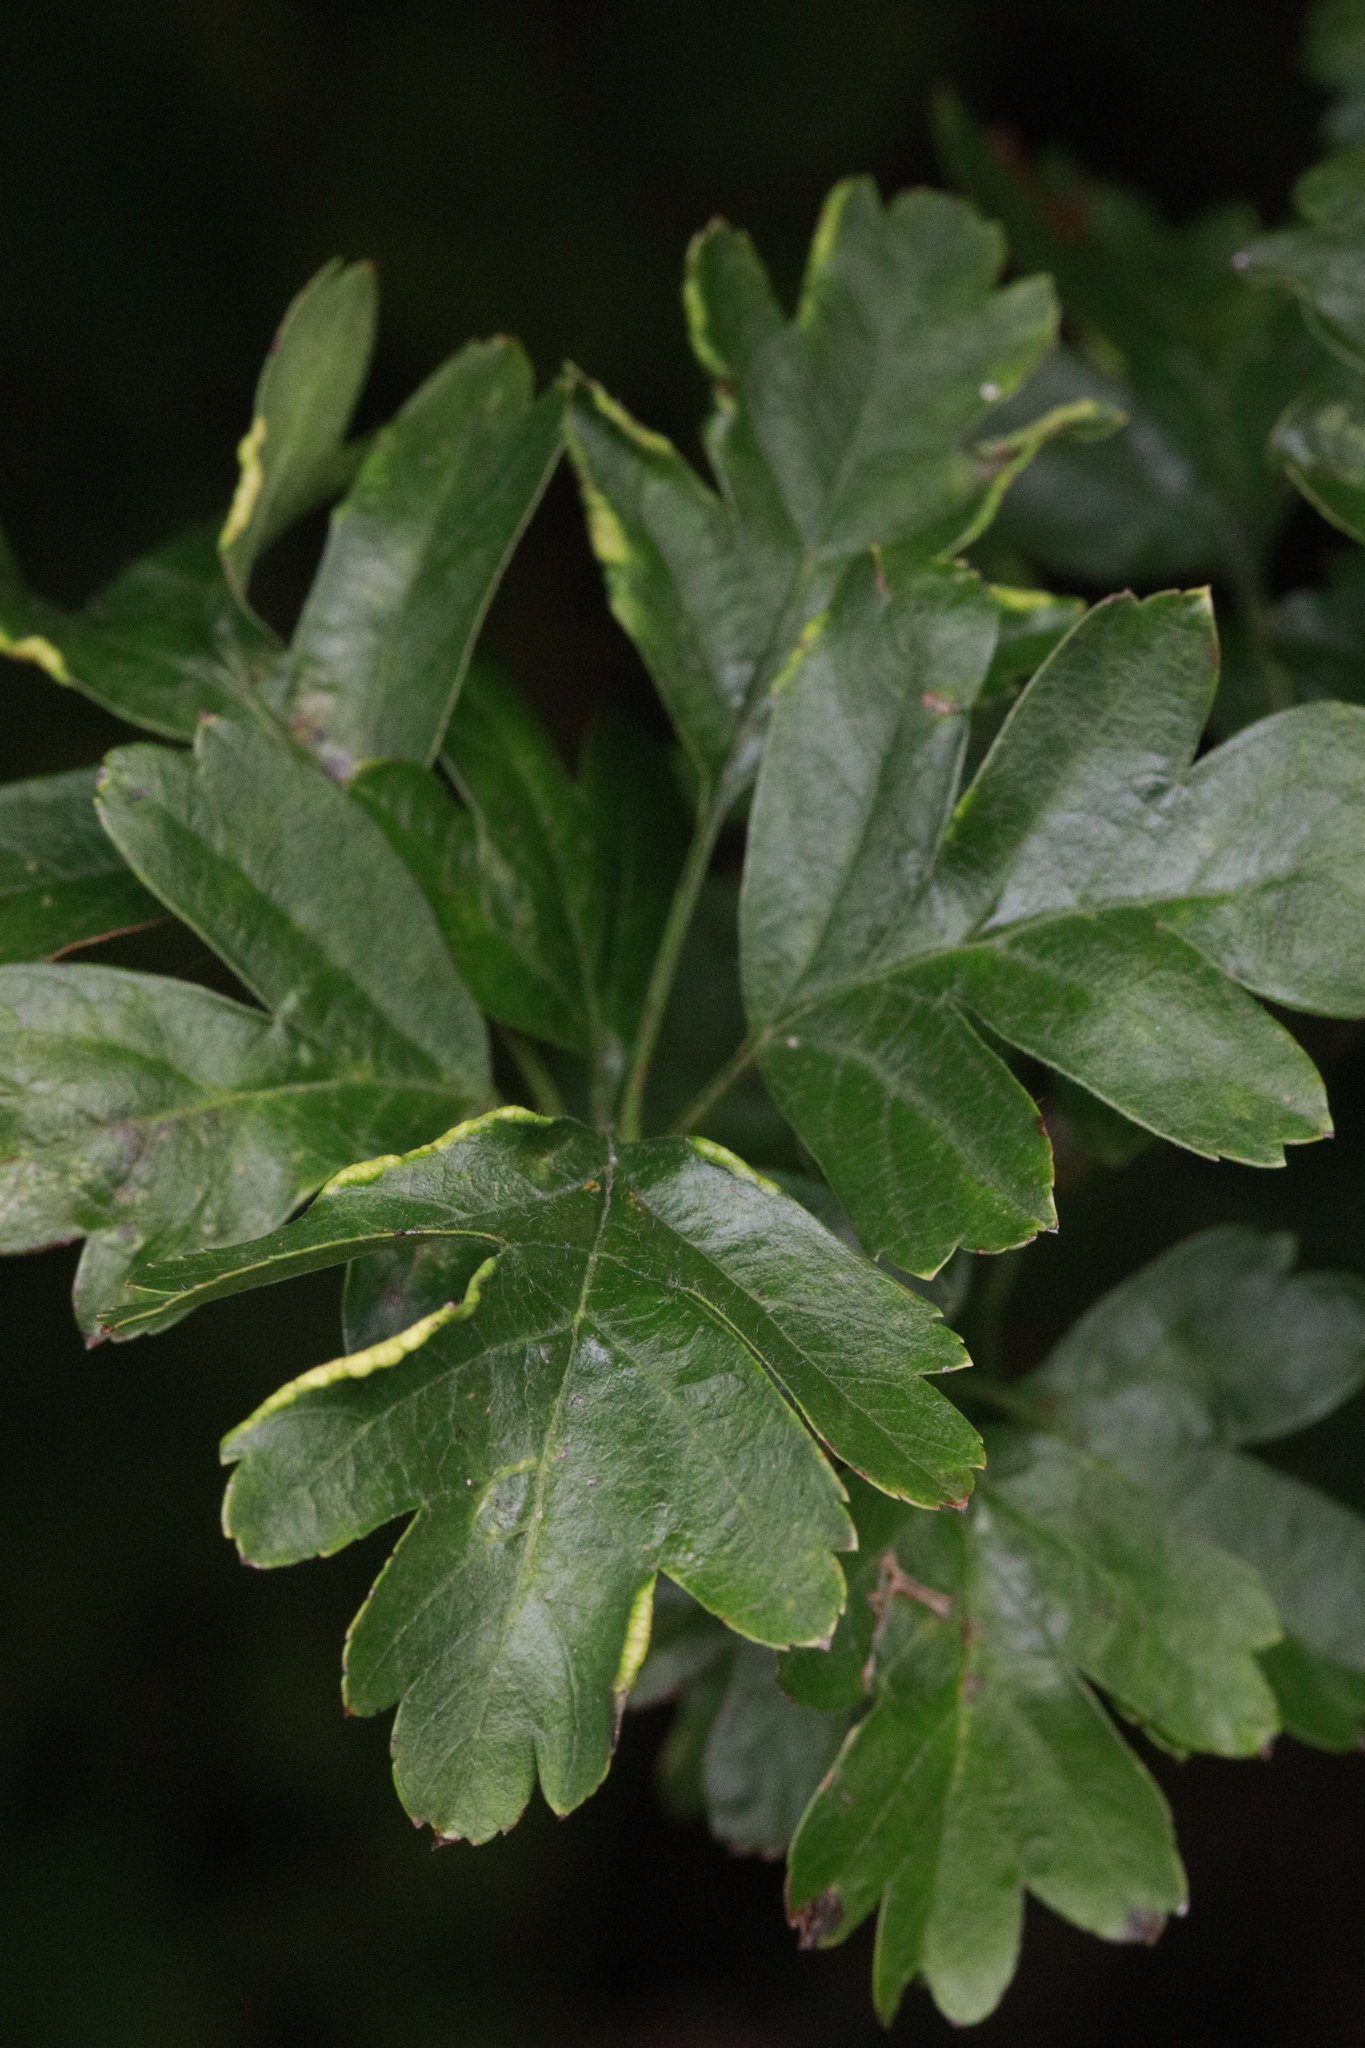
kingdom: Plantae
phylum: Tracheophyta
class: Magnoliopsida
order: Rosales
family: Rosaceae
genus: Crataegus
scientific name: Crataegus monogyna
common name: Hawthorn
